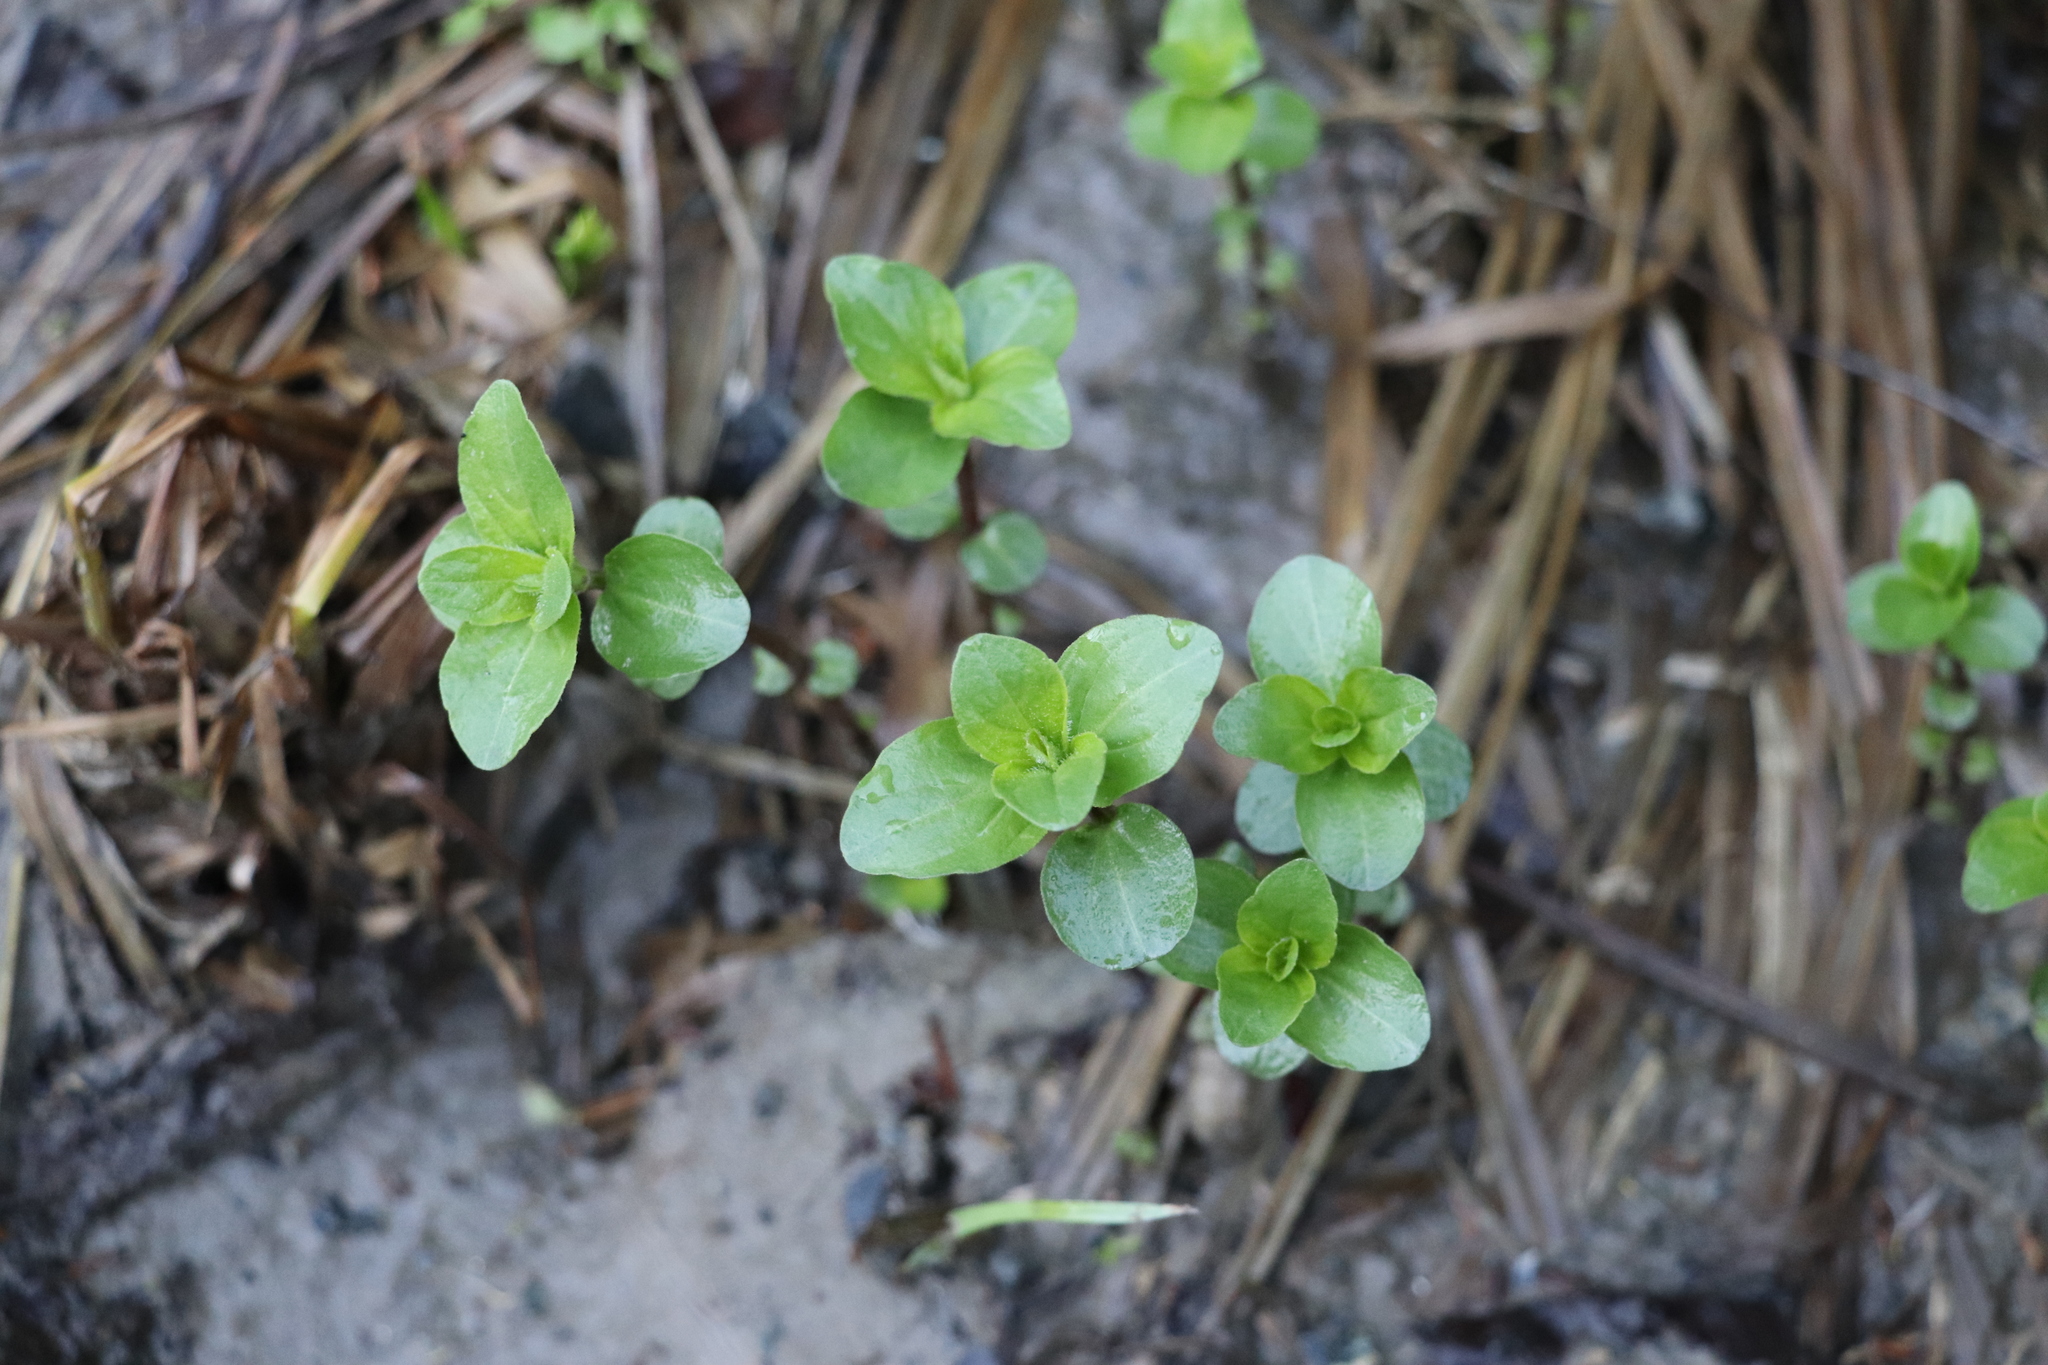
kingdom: Plantae
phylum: Tracheophyta
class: Magnoliopsida
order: Lamiales
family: Lamiaceae
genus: Mentha
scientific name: Mentha arvensis
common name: Corn mint
